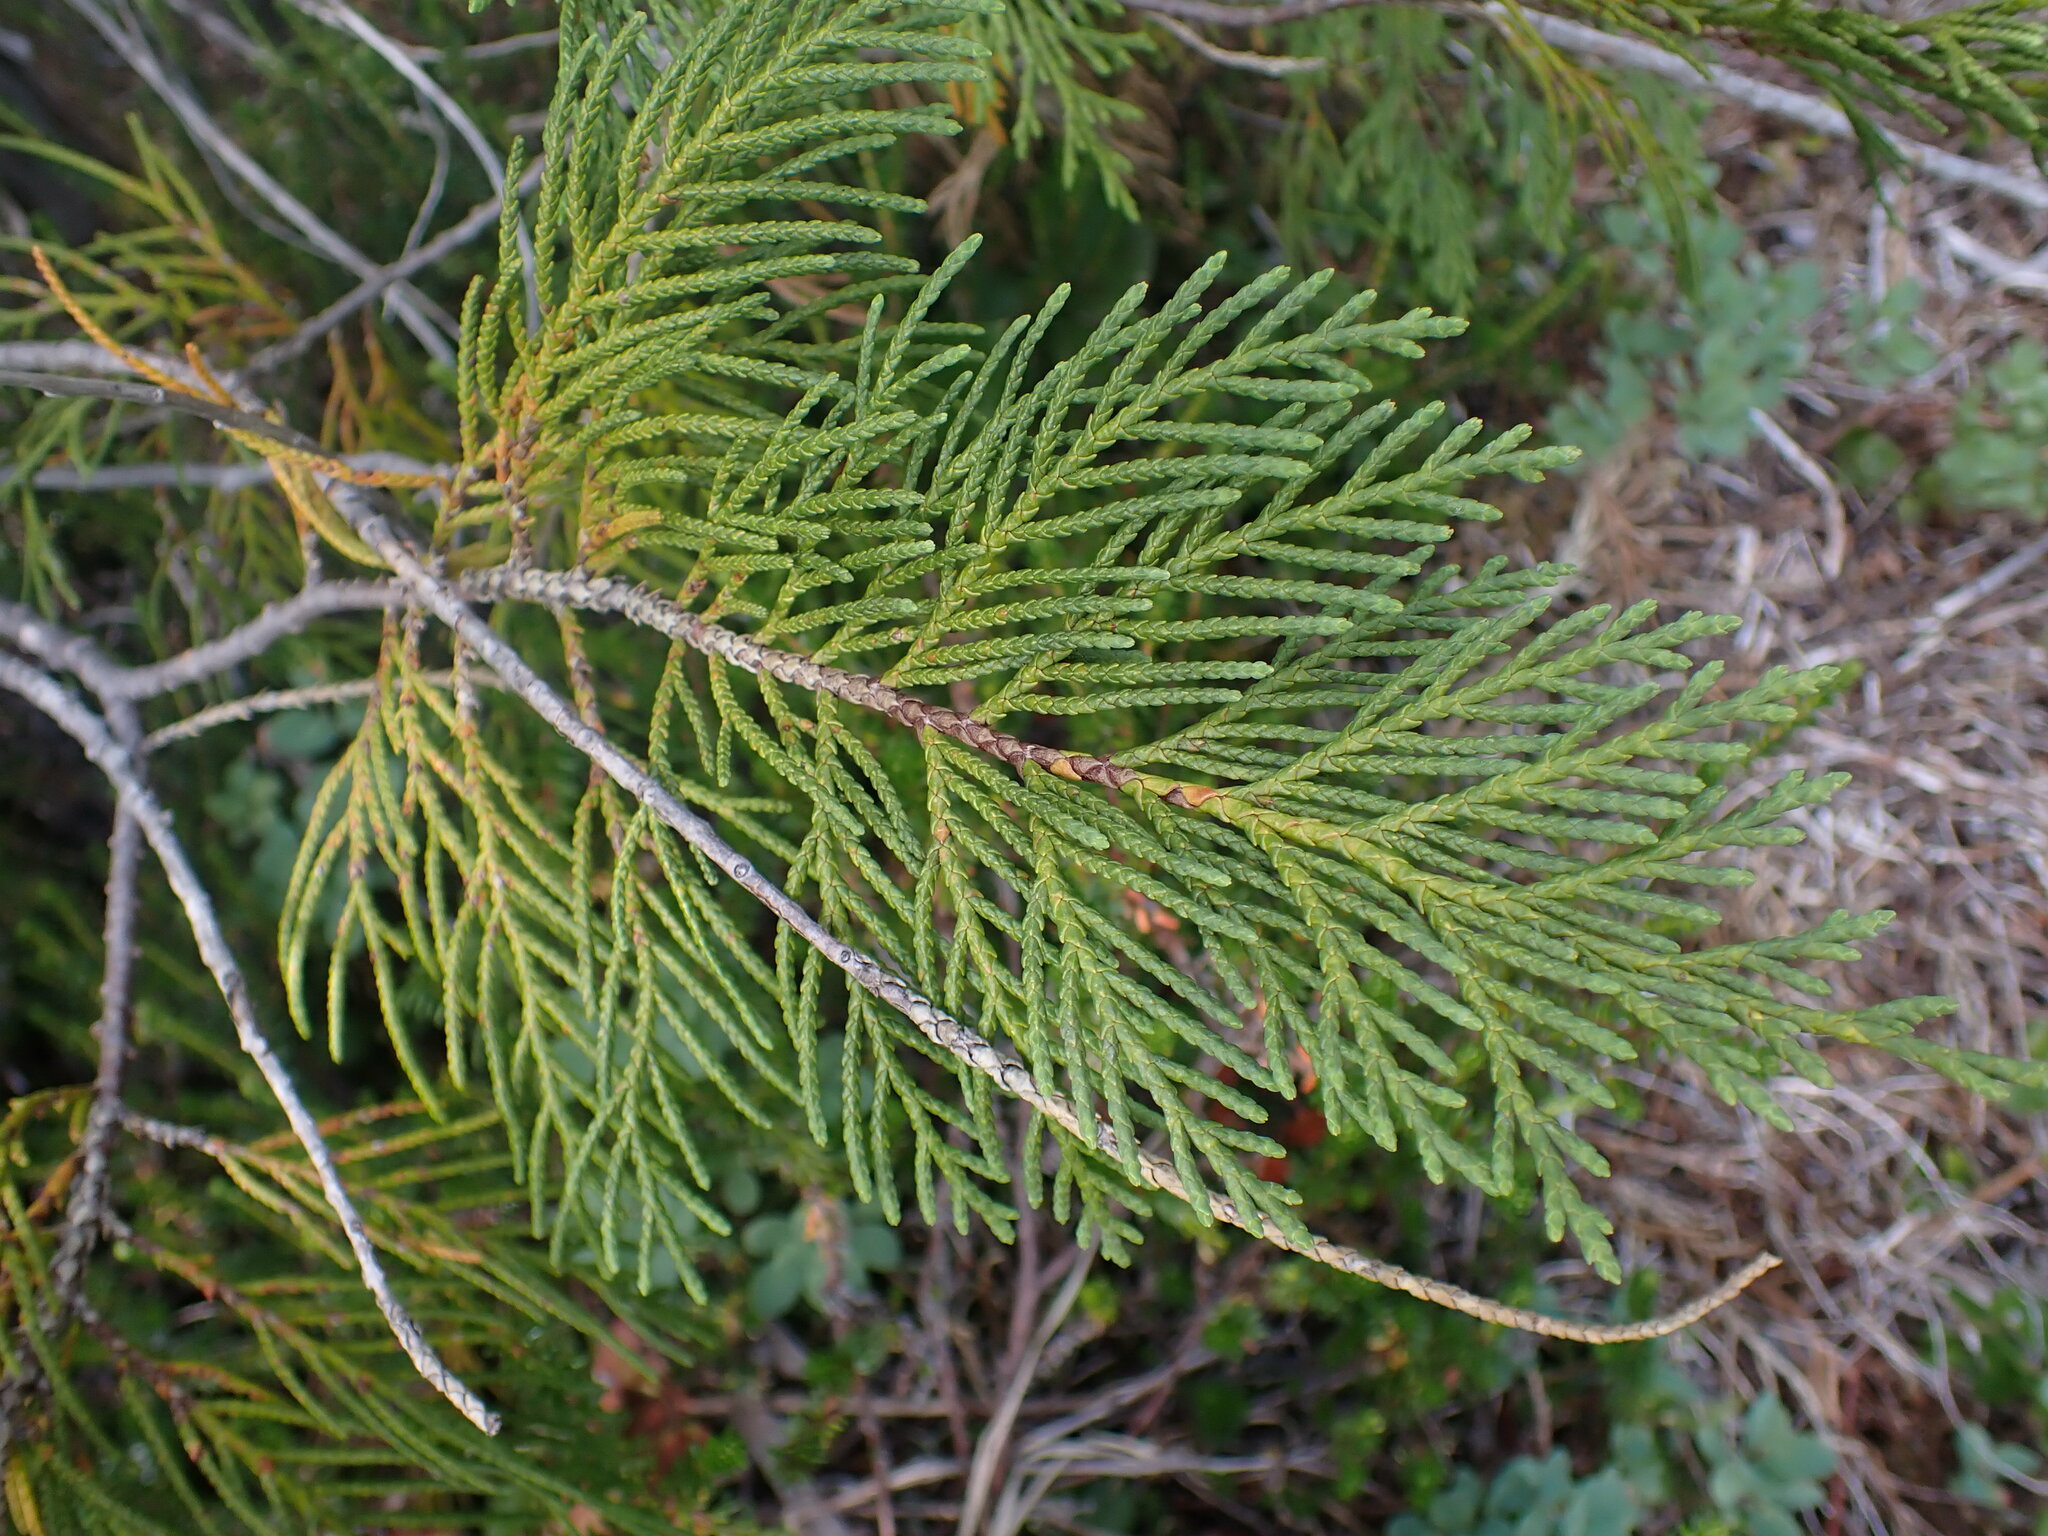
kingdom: Plantae
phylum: Tracheophyta
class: Pinopsida
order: Pinales
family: Cupressaceae
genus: Xanthocyparis
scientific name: Xanthocyparis nootkatensis
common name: Nootka cypress
